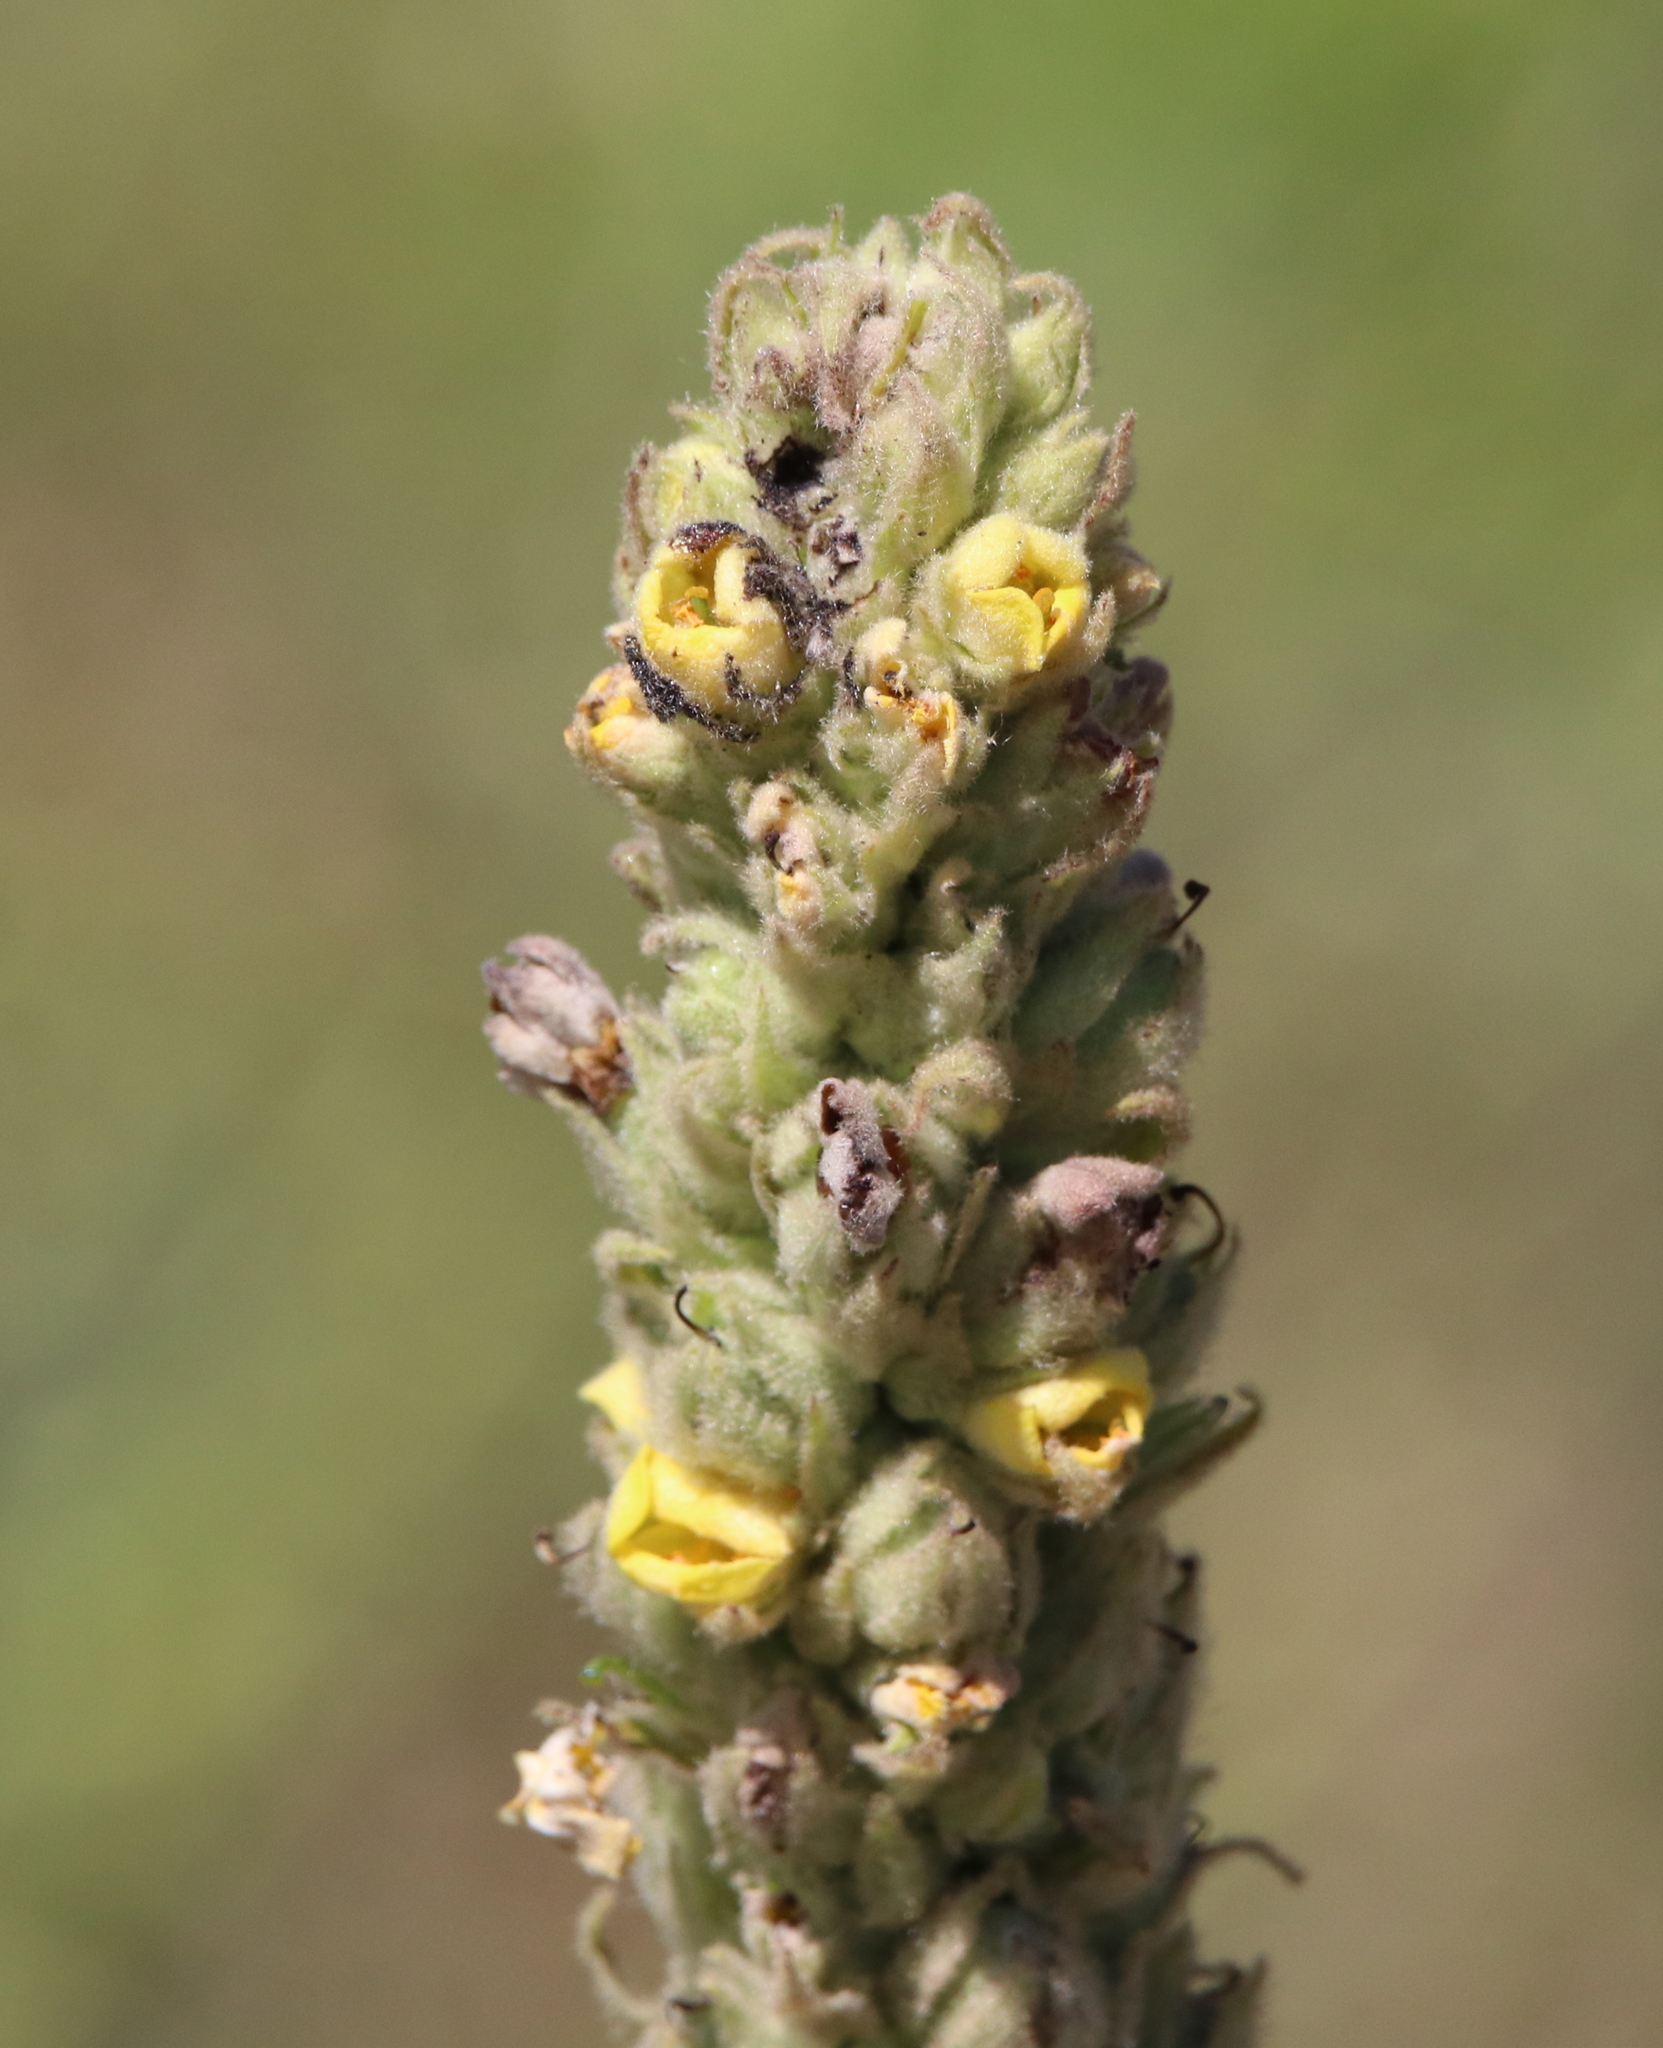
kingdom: Plantae
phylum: Tracheophyta
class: Magnoliopsida
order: Lamiales
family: Scrophulariaceae
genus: Verbascum
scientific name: Verbascum thapsus
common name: Common mullein
